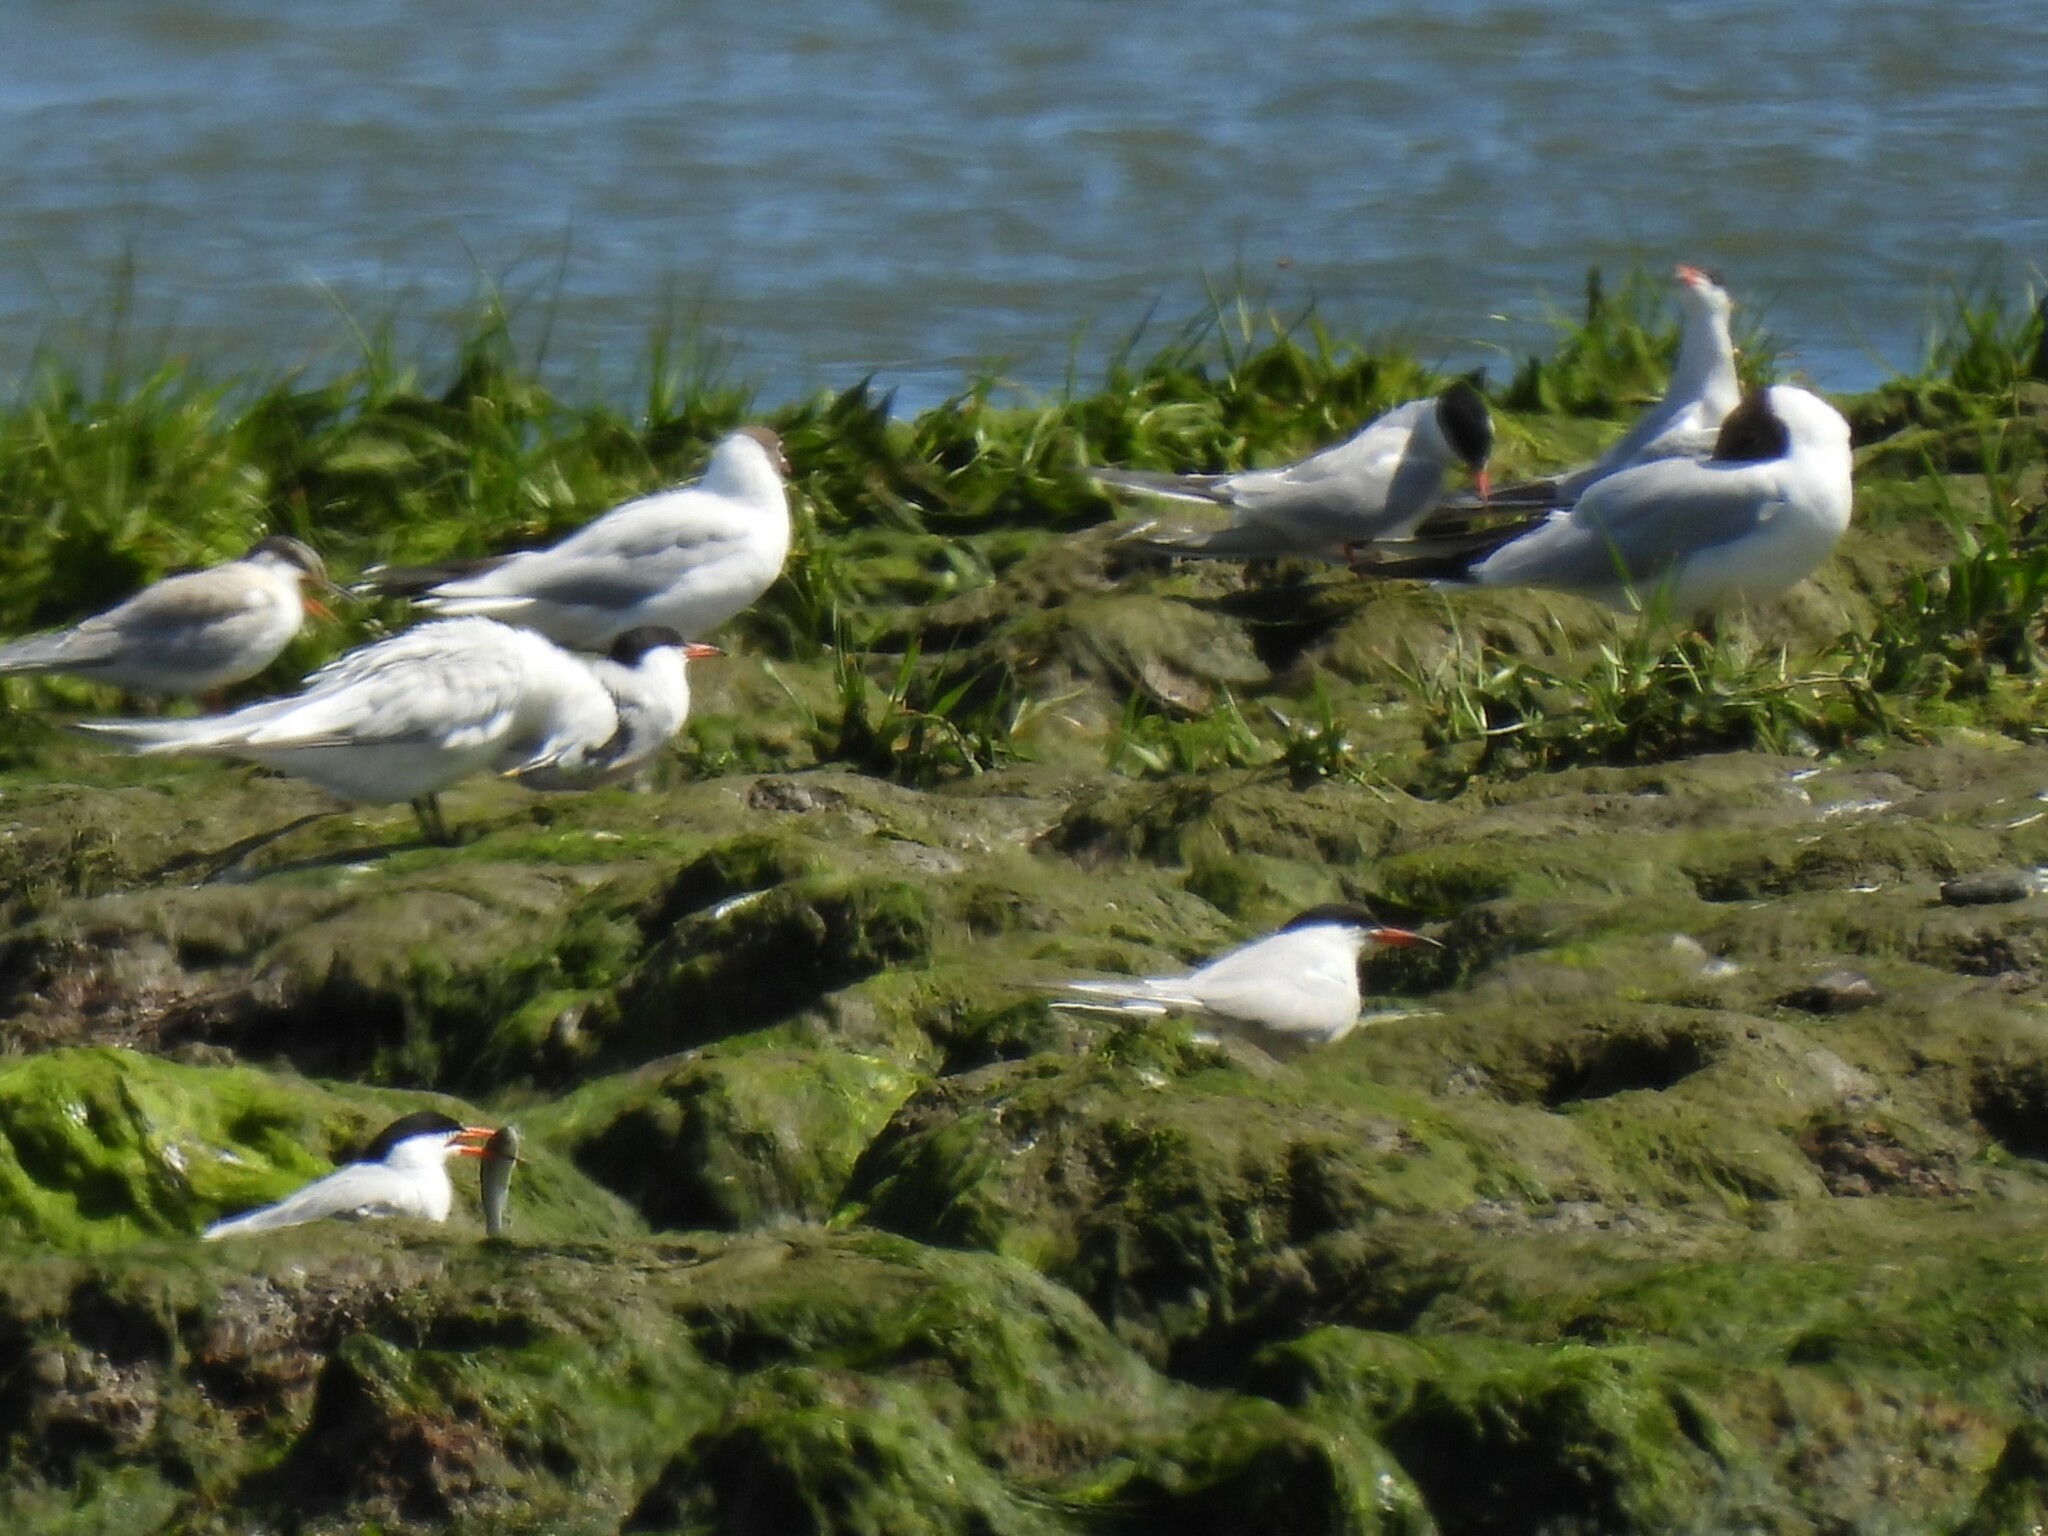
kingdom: Animalia
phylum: Chordata
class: Aves
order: Charadriiformes
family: Laridae
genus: Sterna
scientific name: Sterna hirundo
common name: Common tern
